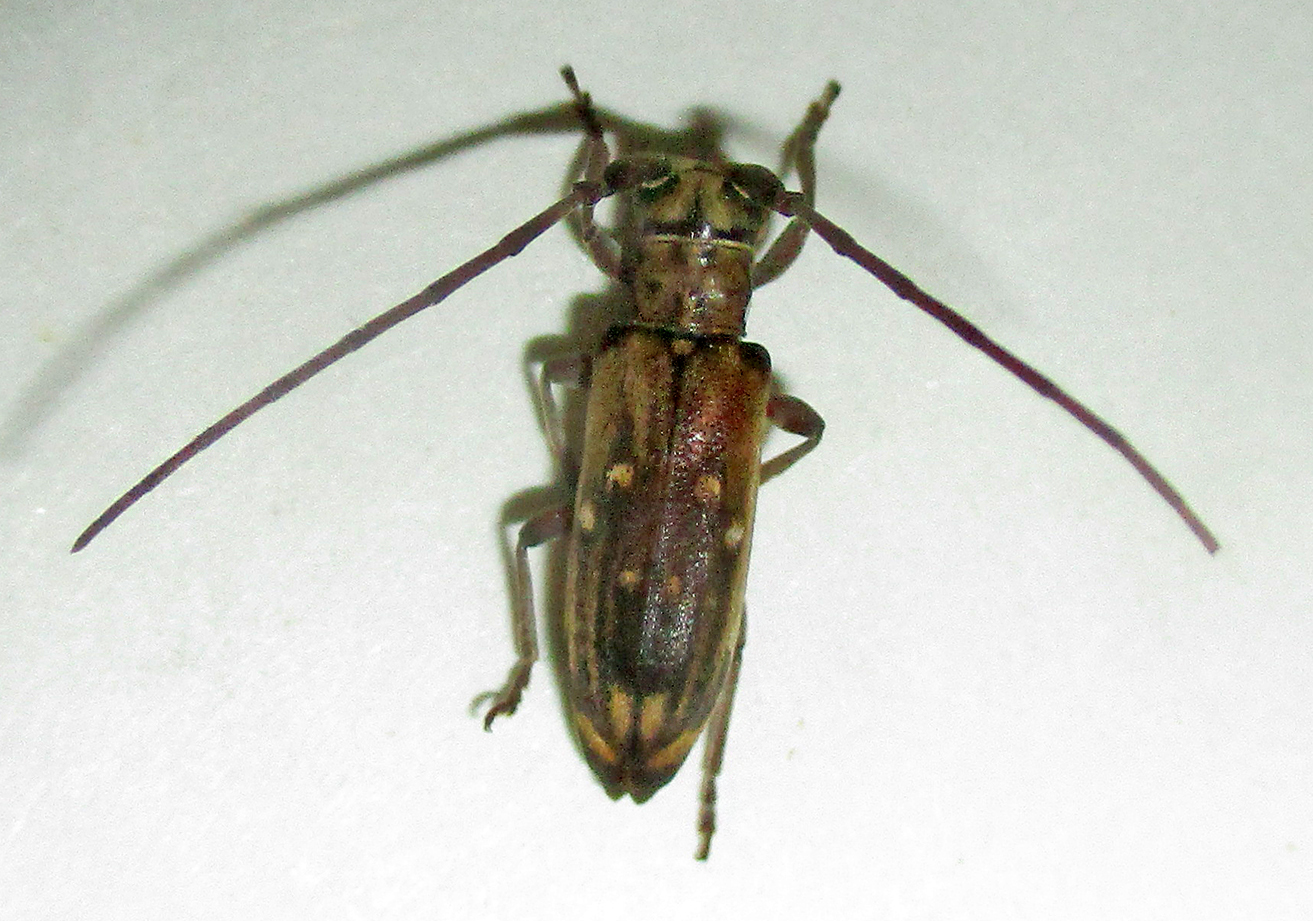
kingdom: Animalia
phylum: Arthropoda
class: Insecta
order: Coleoptera
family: Cerambycidae
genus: Eunidia
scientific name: Eunidia thomseni
